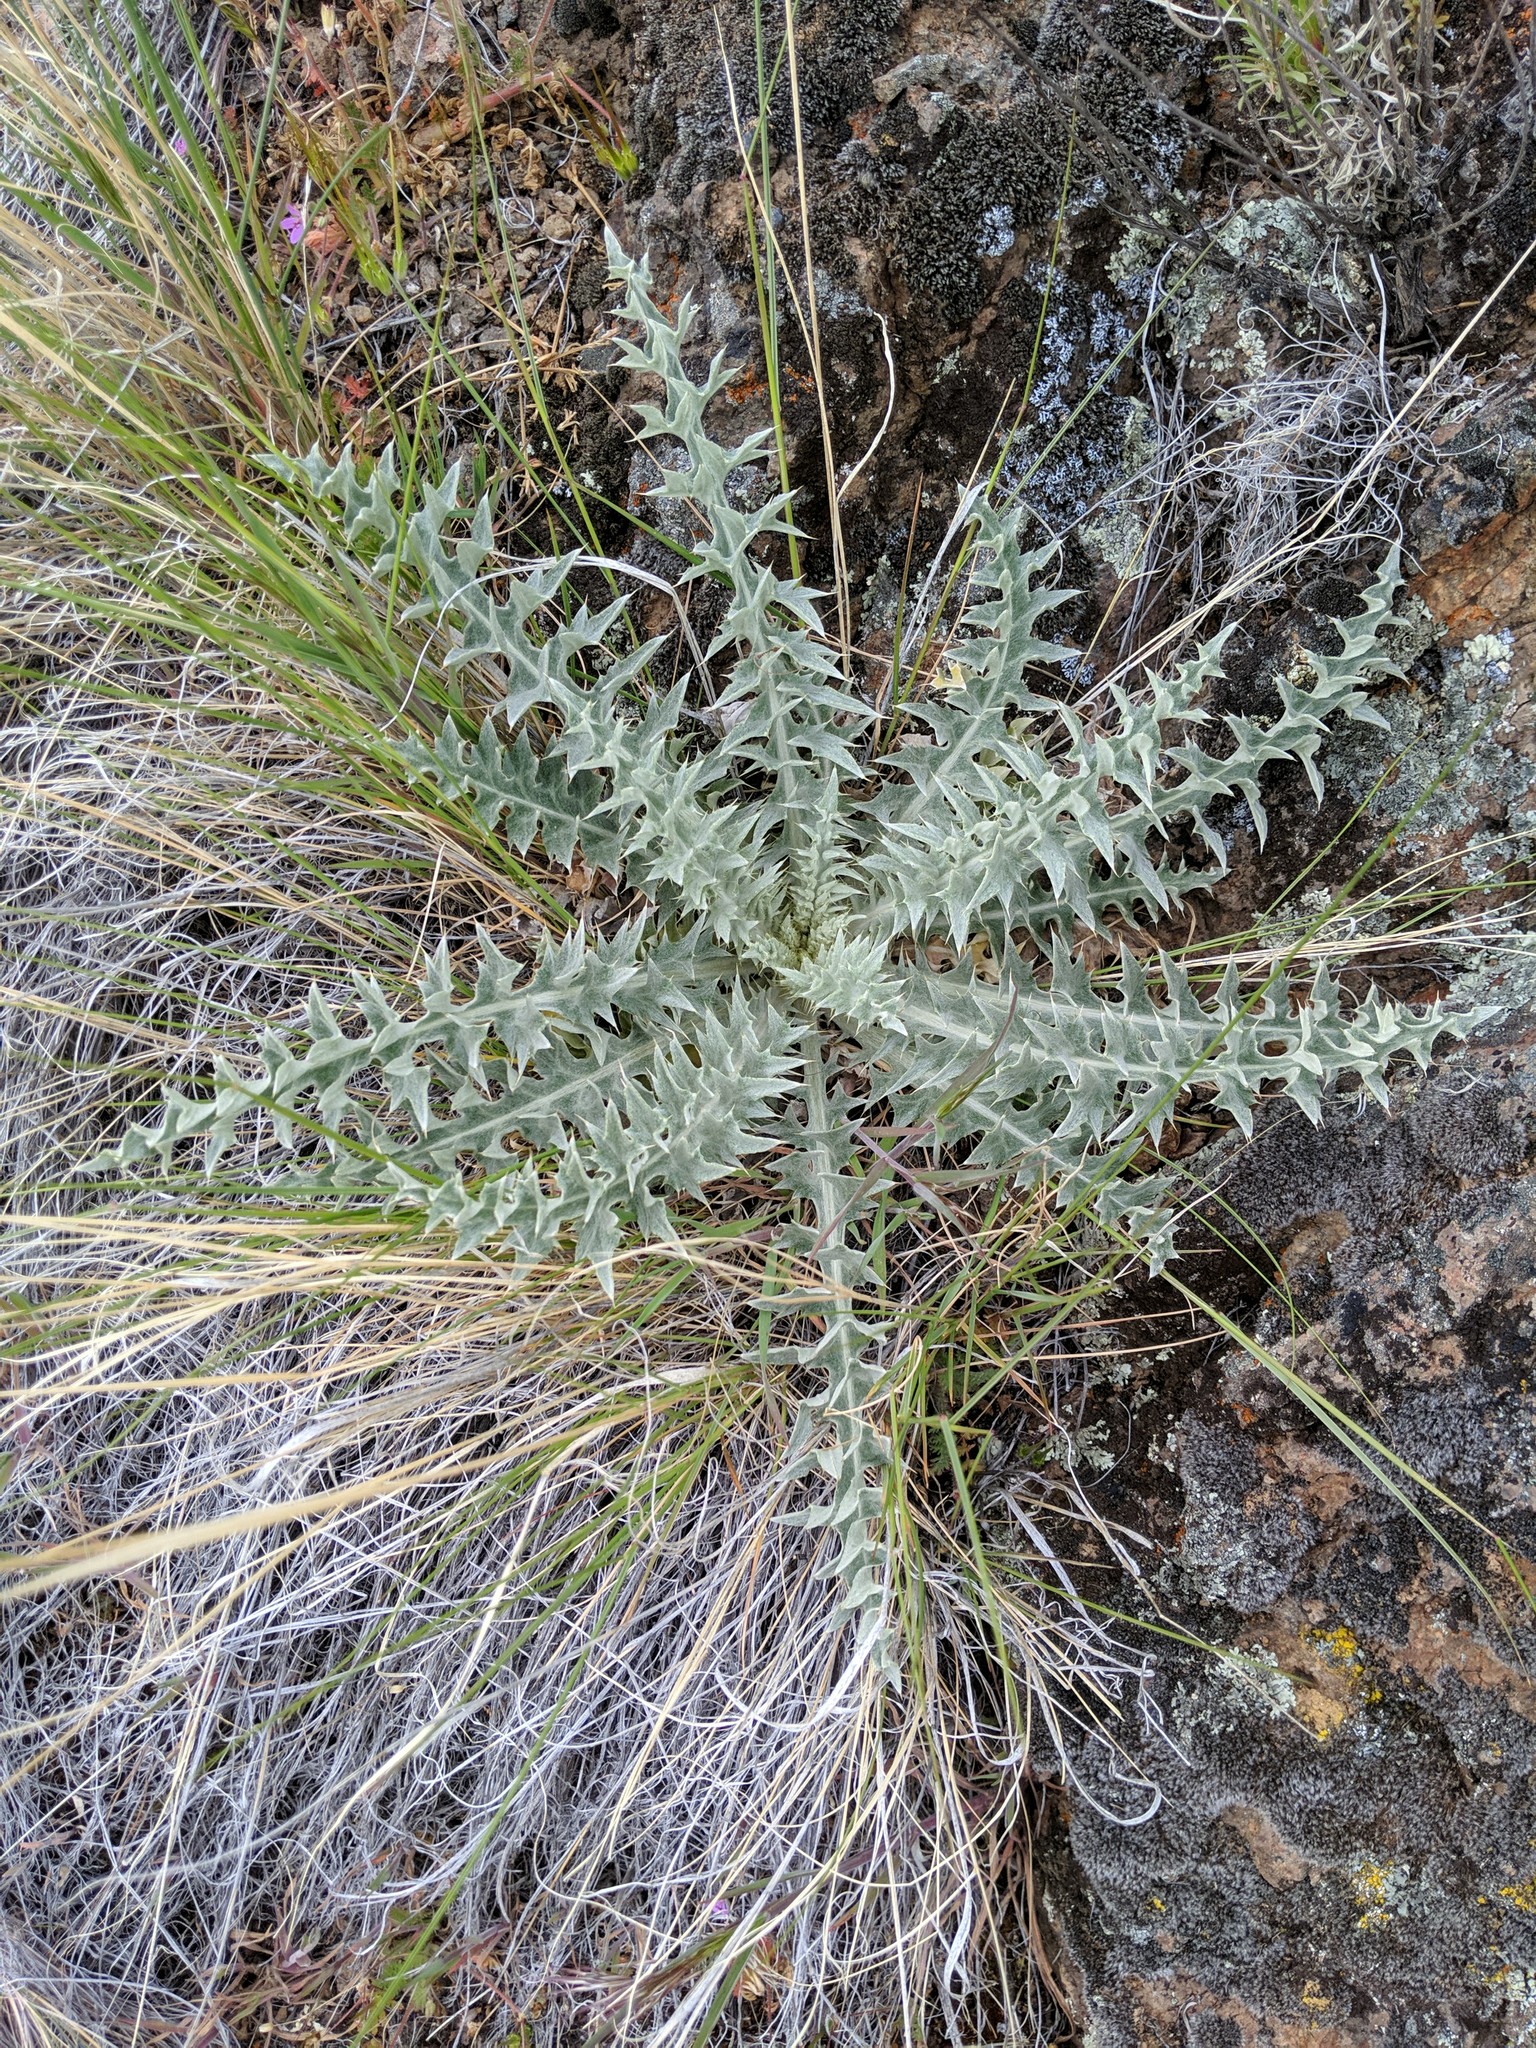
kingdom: Plantae
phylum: Tracheophyta
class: Magnoliopsida
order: Asterales
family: Asteraceae
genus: Cirsium
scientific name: Cirsium undulatum
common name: Pasture thistle
